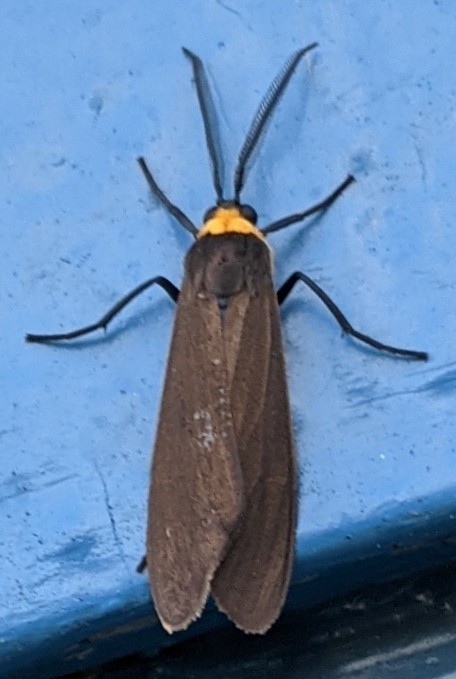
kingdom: Animalia
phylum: Arthropoda
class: Insecta
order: Lepidoptera
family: Erebidae
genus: Cisseps
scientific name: Cisseps fulvicollis
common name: Yellow-collared scape moth
